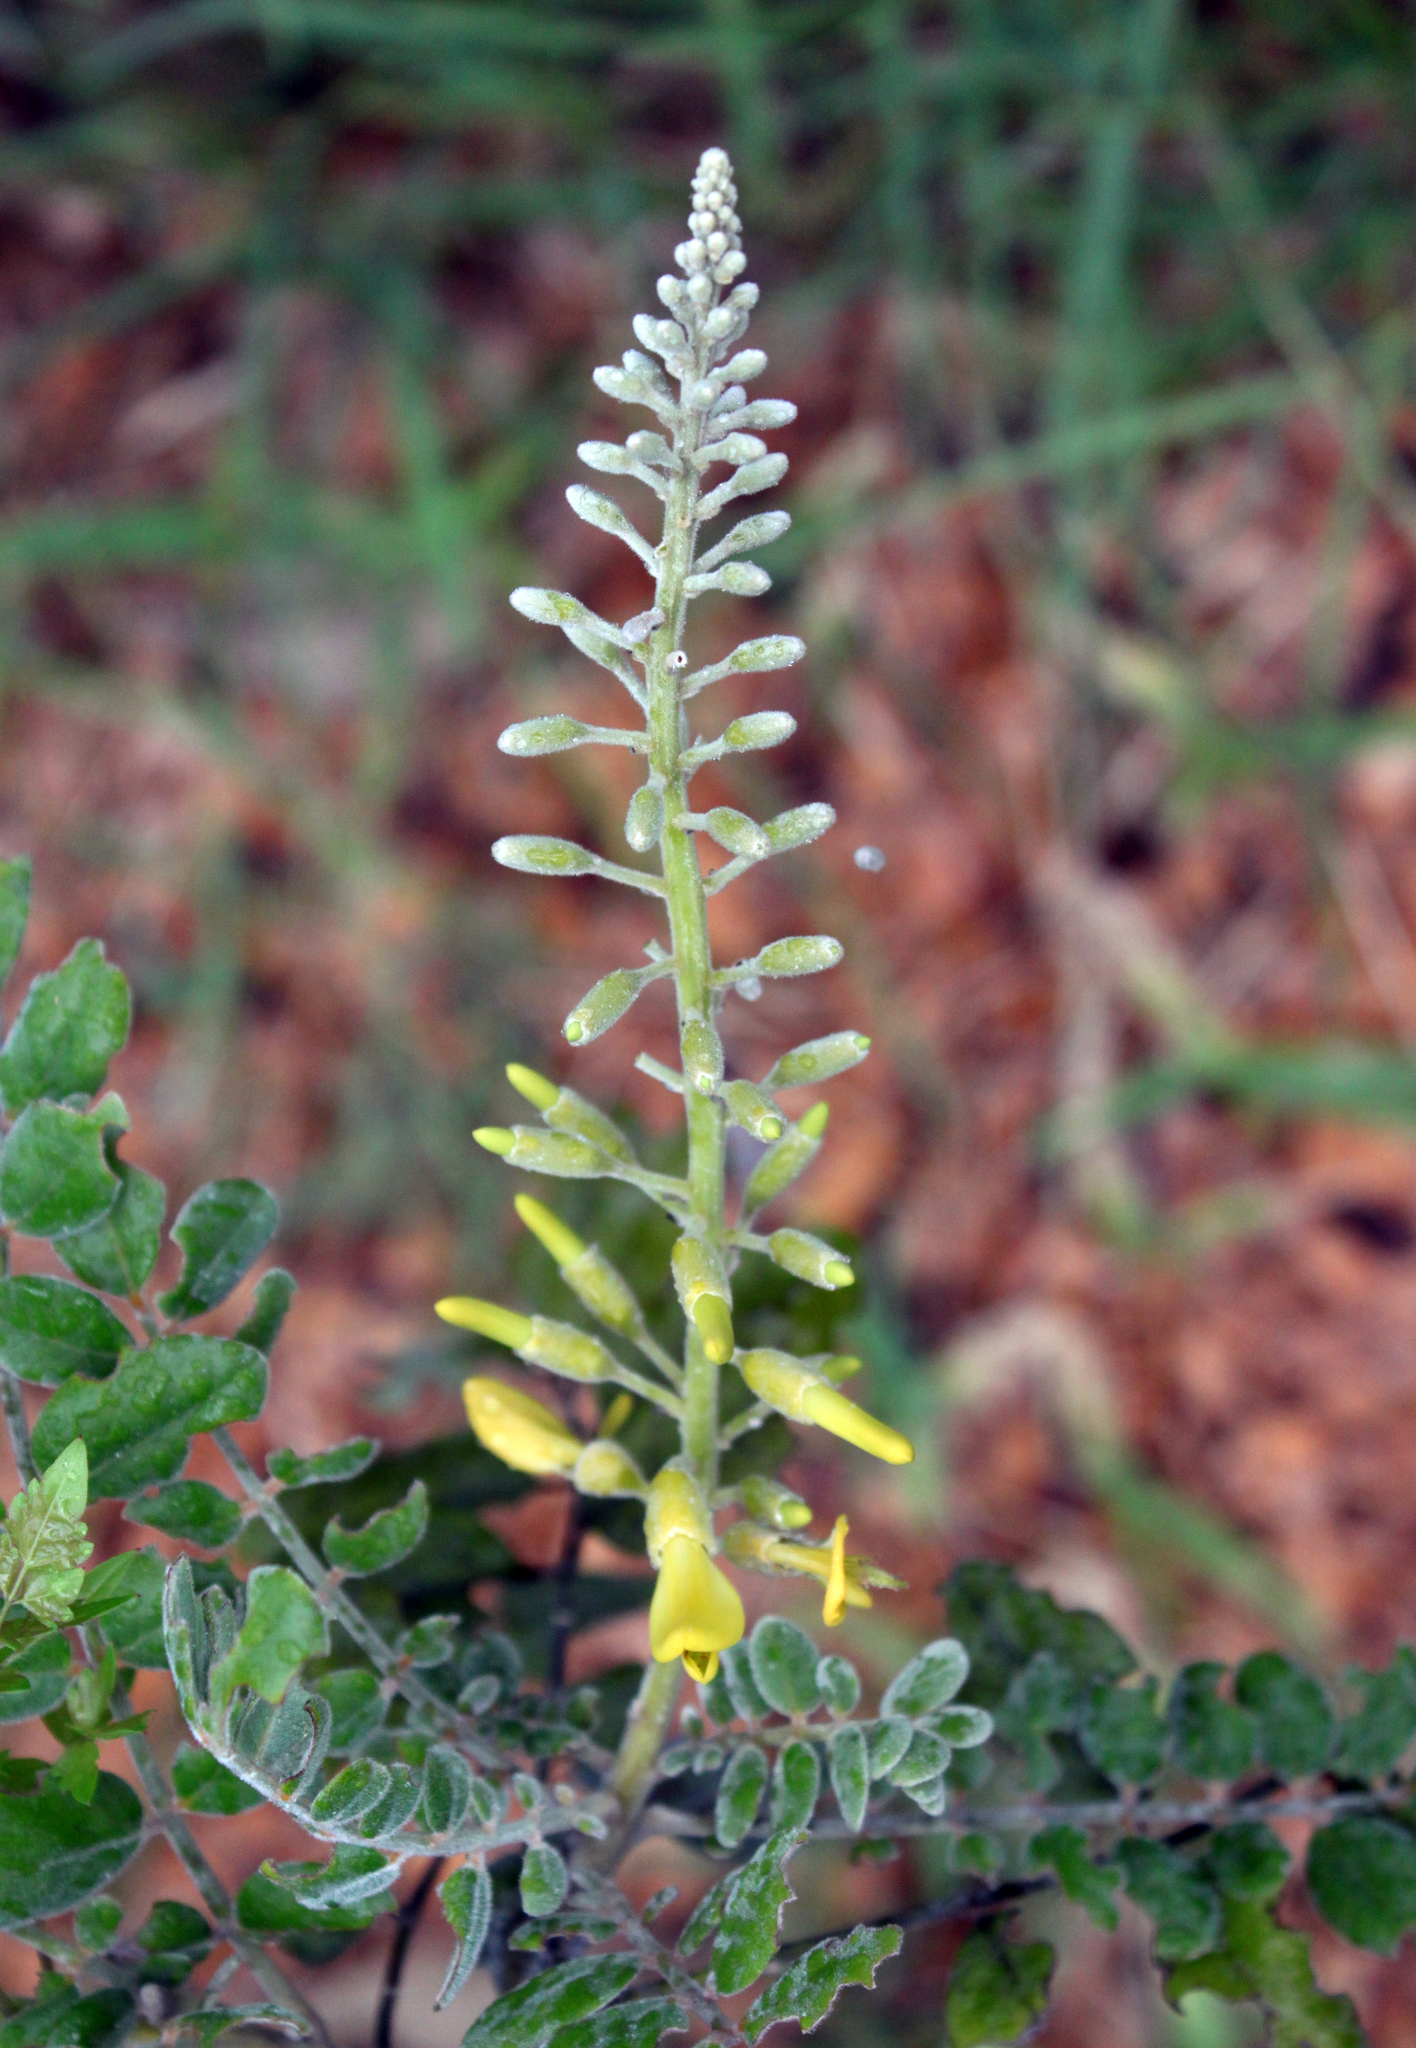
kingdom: Plantae
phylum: Tracheophyta
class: Magnoliopsida
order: Fabales
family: Fabaceae
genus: Sophora
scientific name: Sophora tomentosa
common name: Yellow necklacepod
